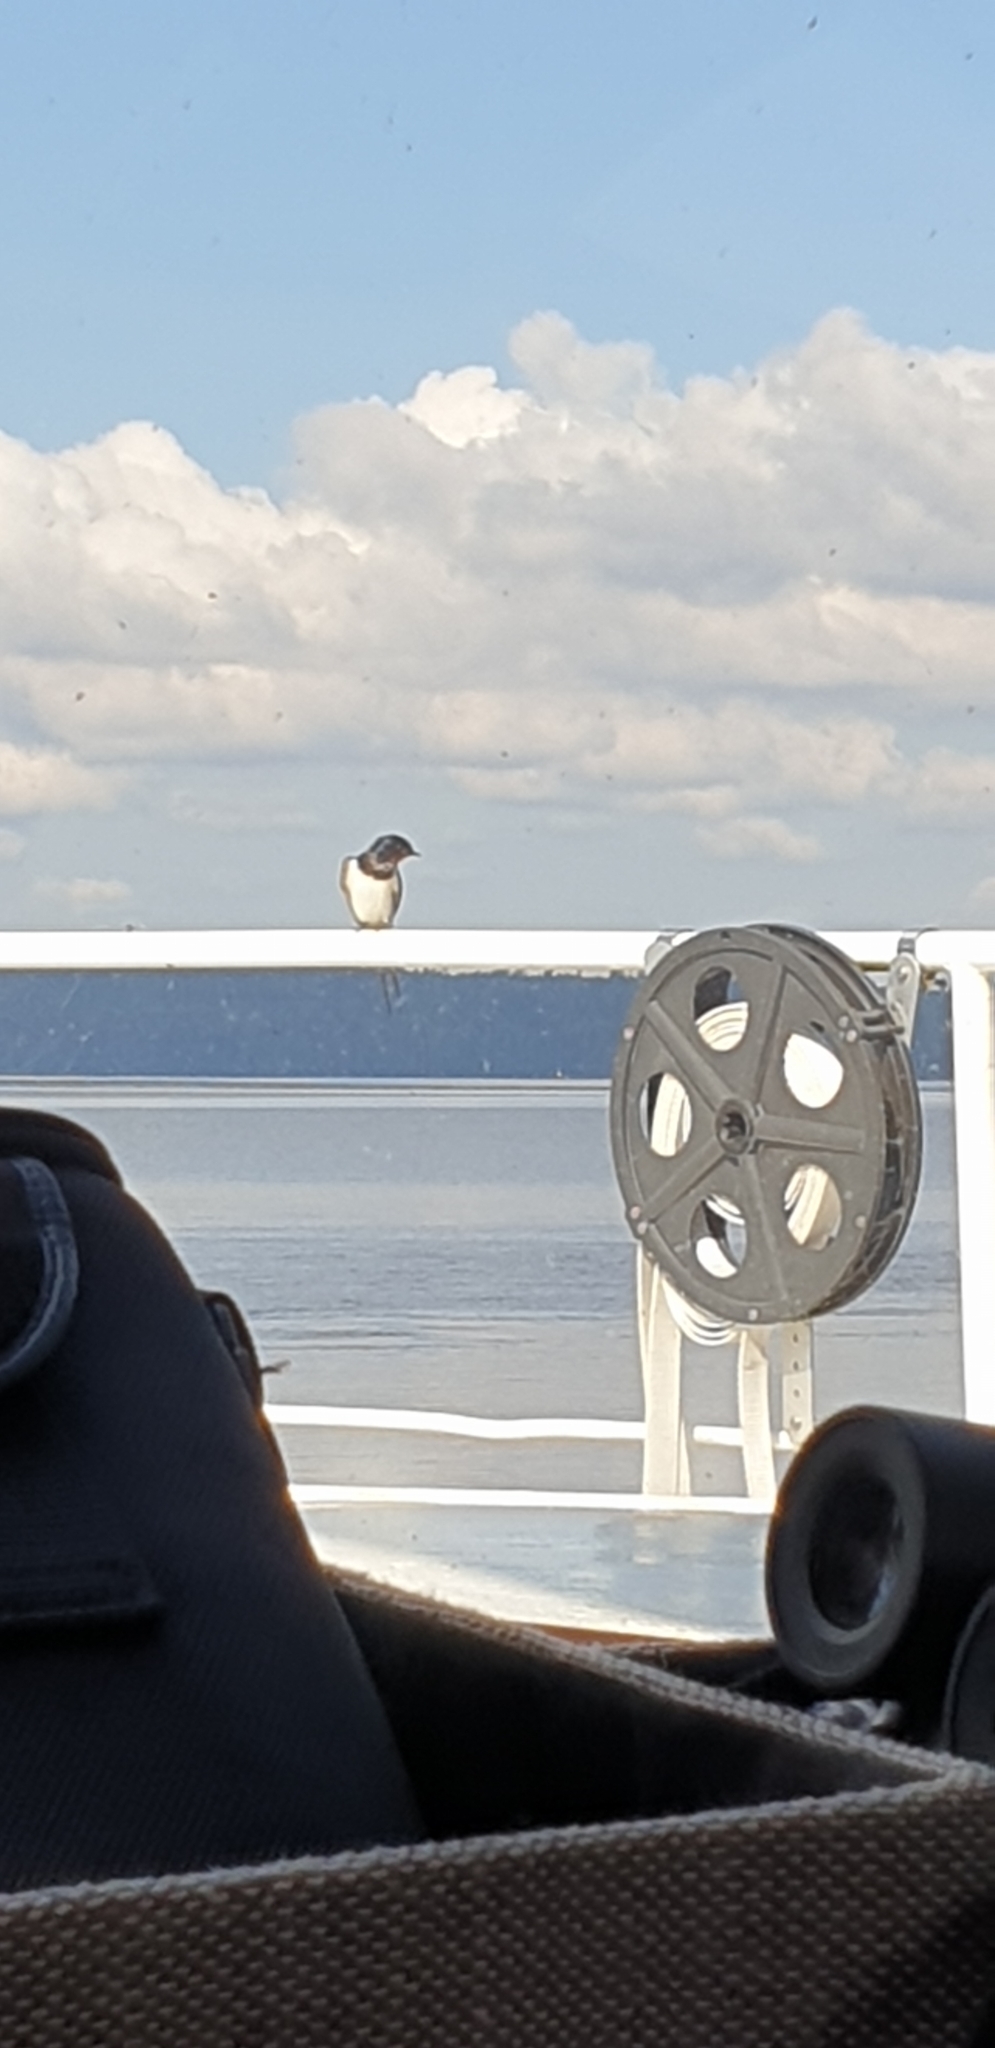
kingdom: Animalia
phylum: Chordata
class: Aves
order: Passeriformes
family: Hirundinidae
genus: Hirundo
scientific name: Hirundo rustica
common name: Barn swallow
